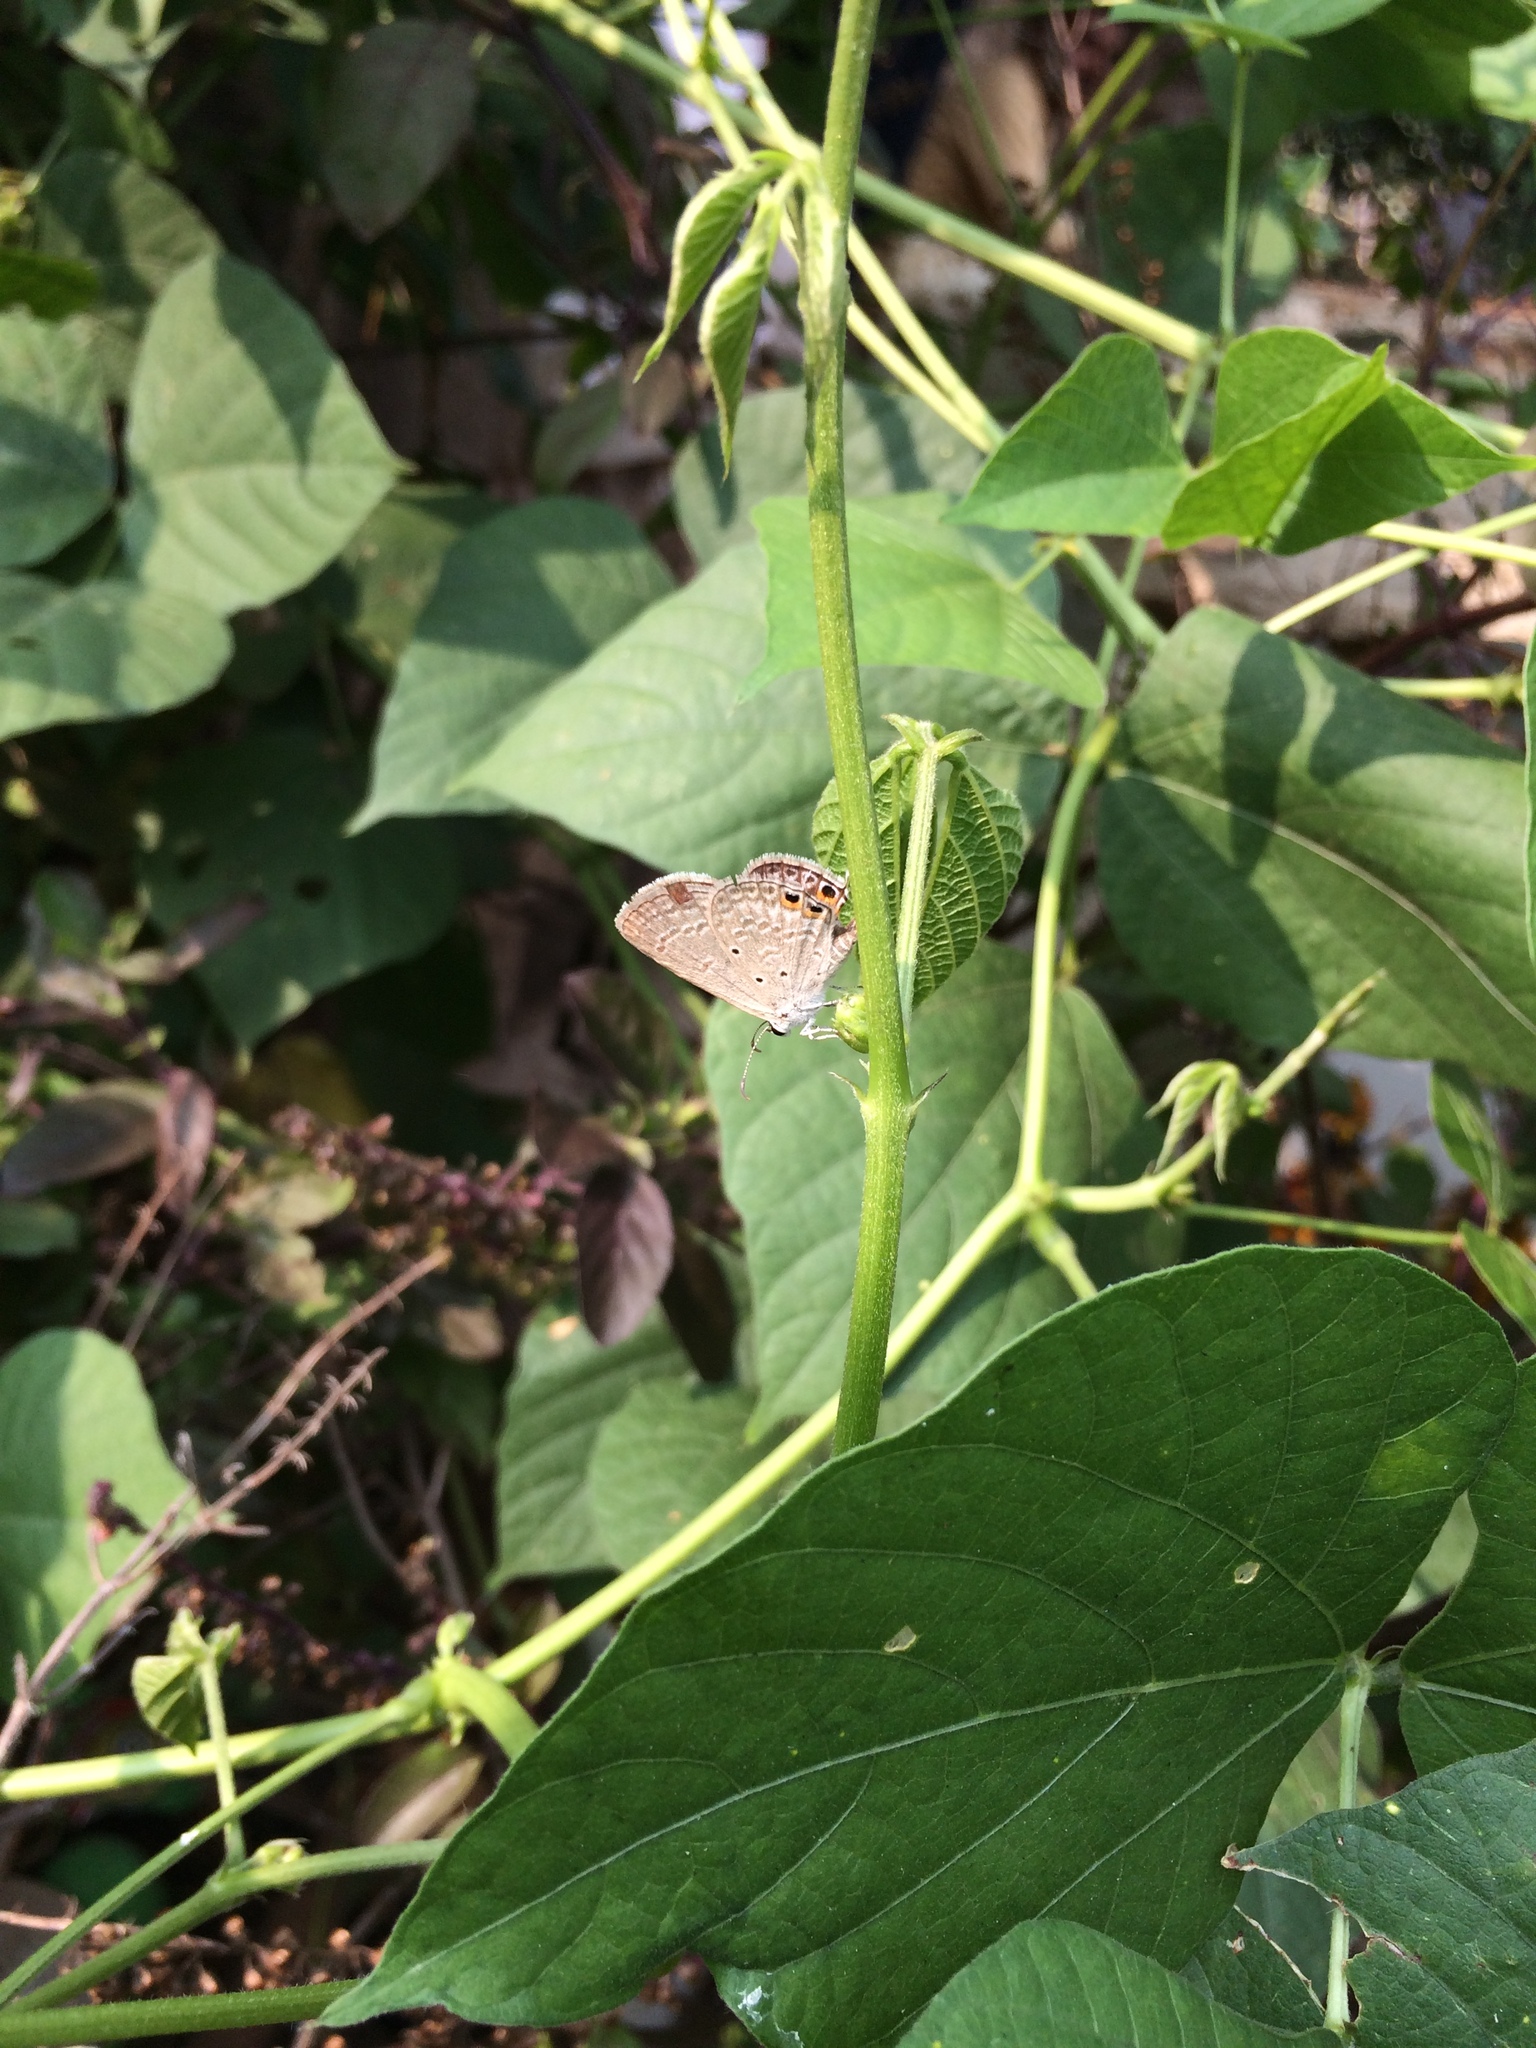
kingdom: Animalia
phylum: Arthropoda
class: Insecta
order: Lepidoptera
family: Lycaenidae
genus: Euchrysops
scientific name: Euchrysops cnejus
